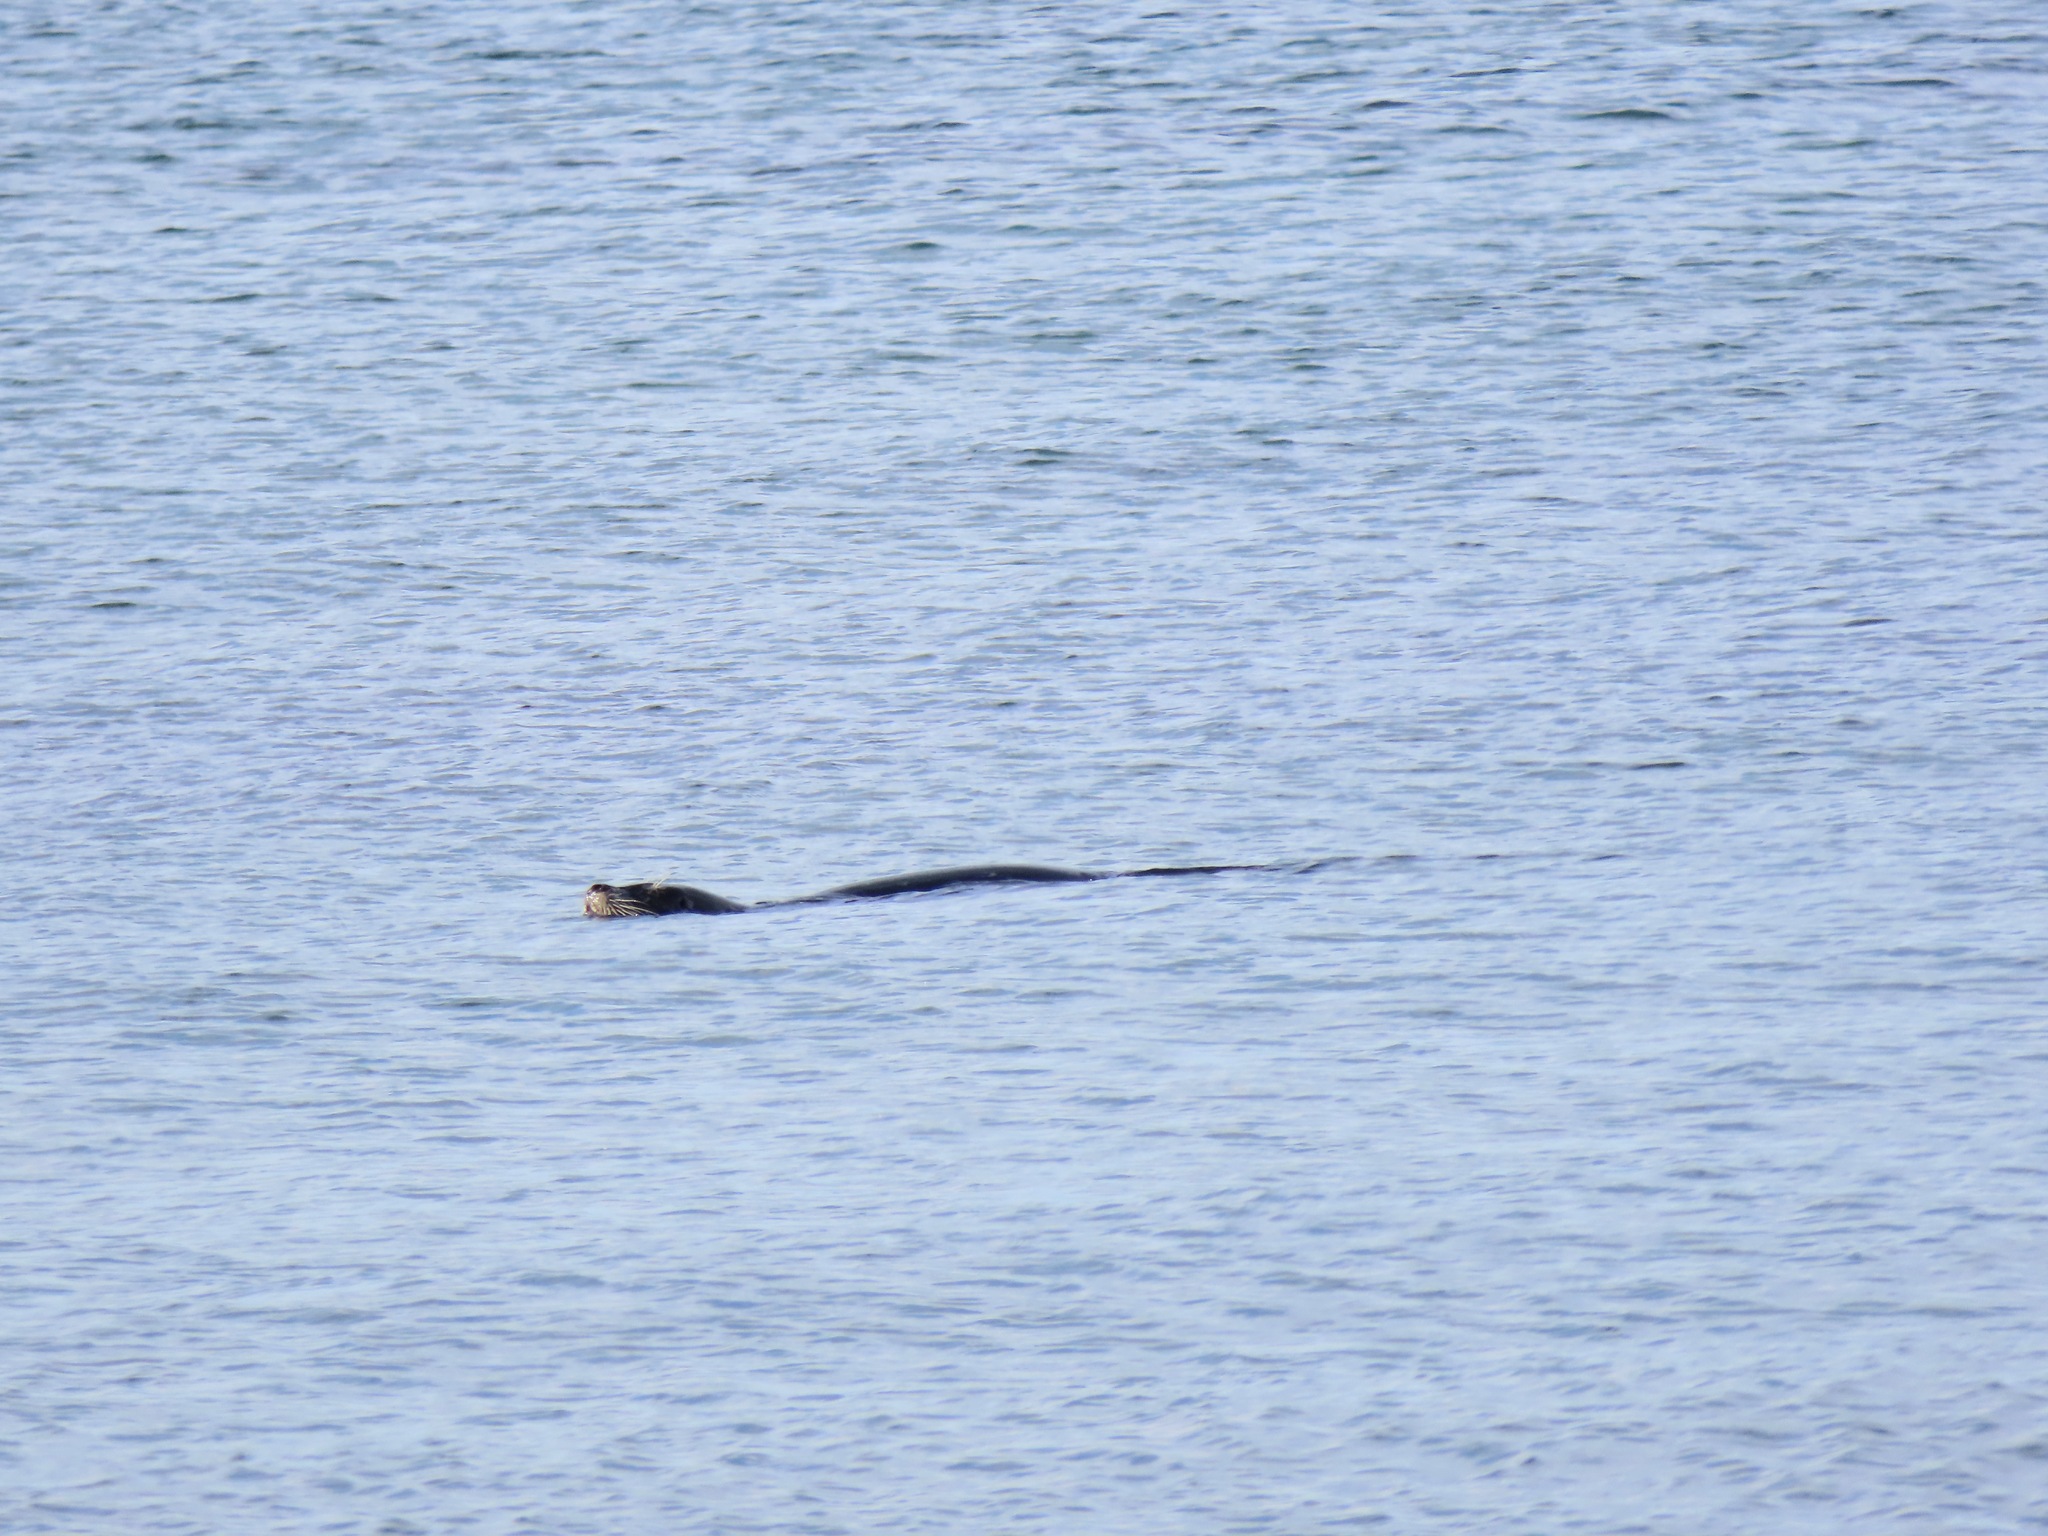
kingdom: Animalia
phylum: Chordata
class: Mammalia
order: Carnivora
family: Phocidae
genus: Phoca
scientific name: Phoca vitulina
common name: Harbor seal
